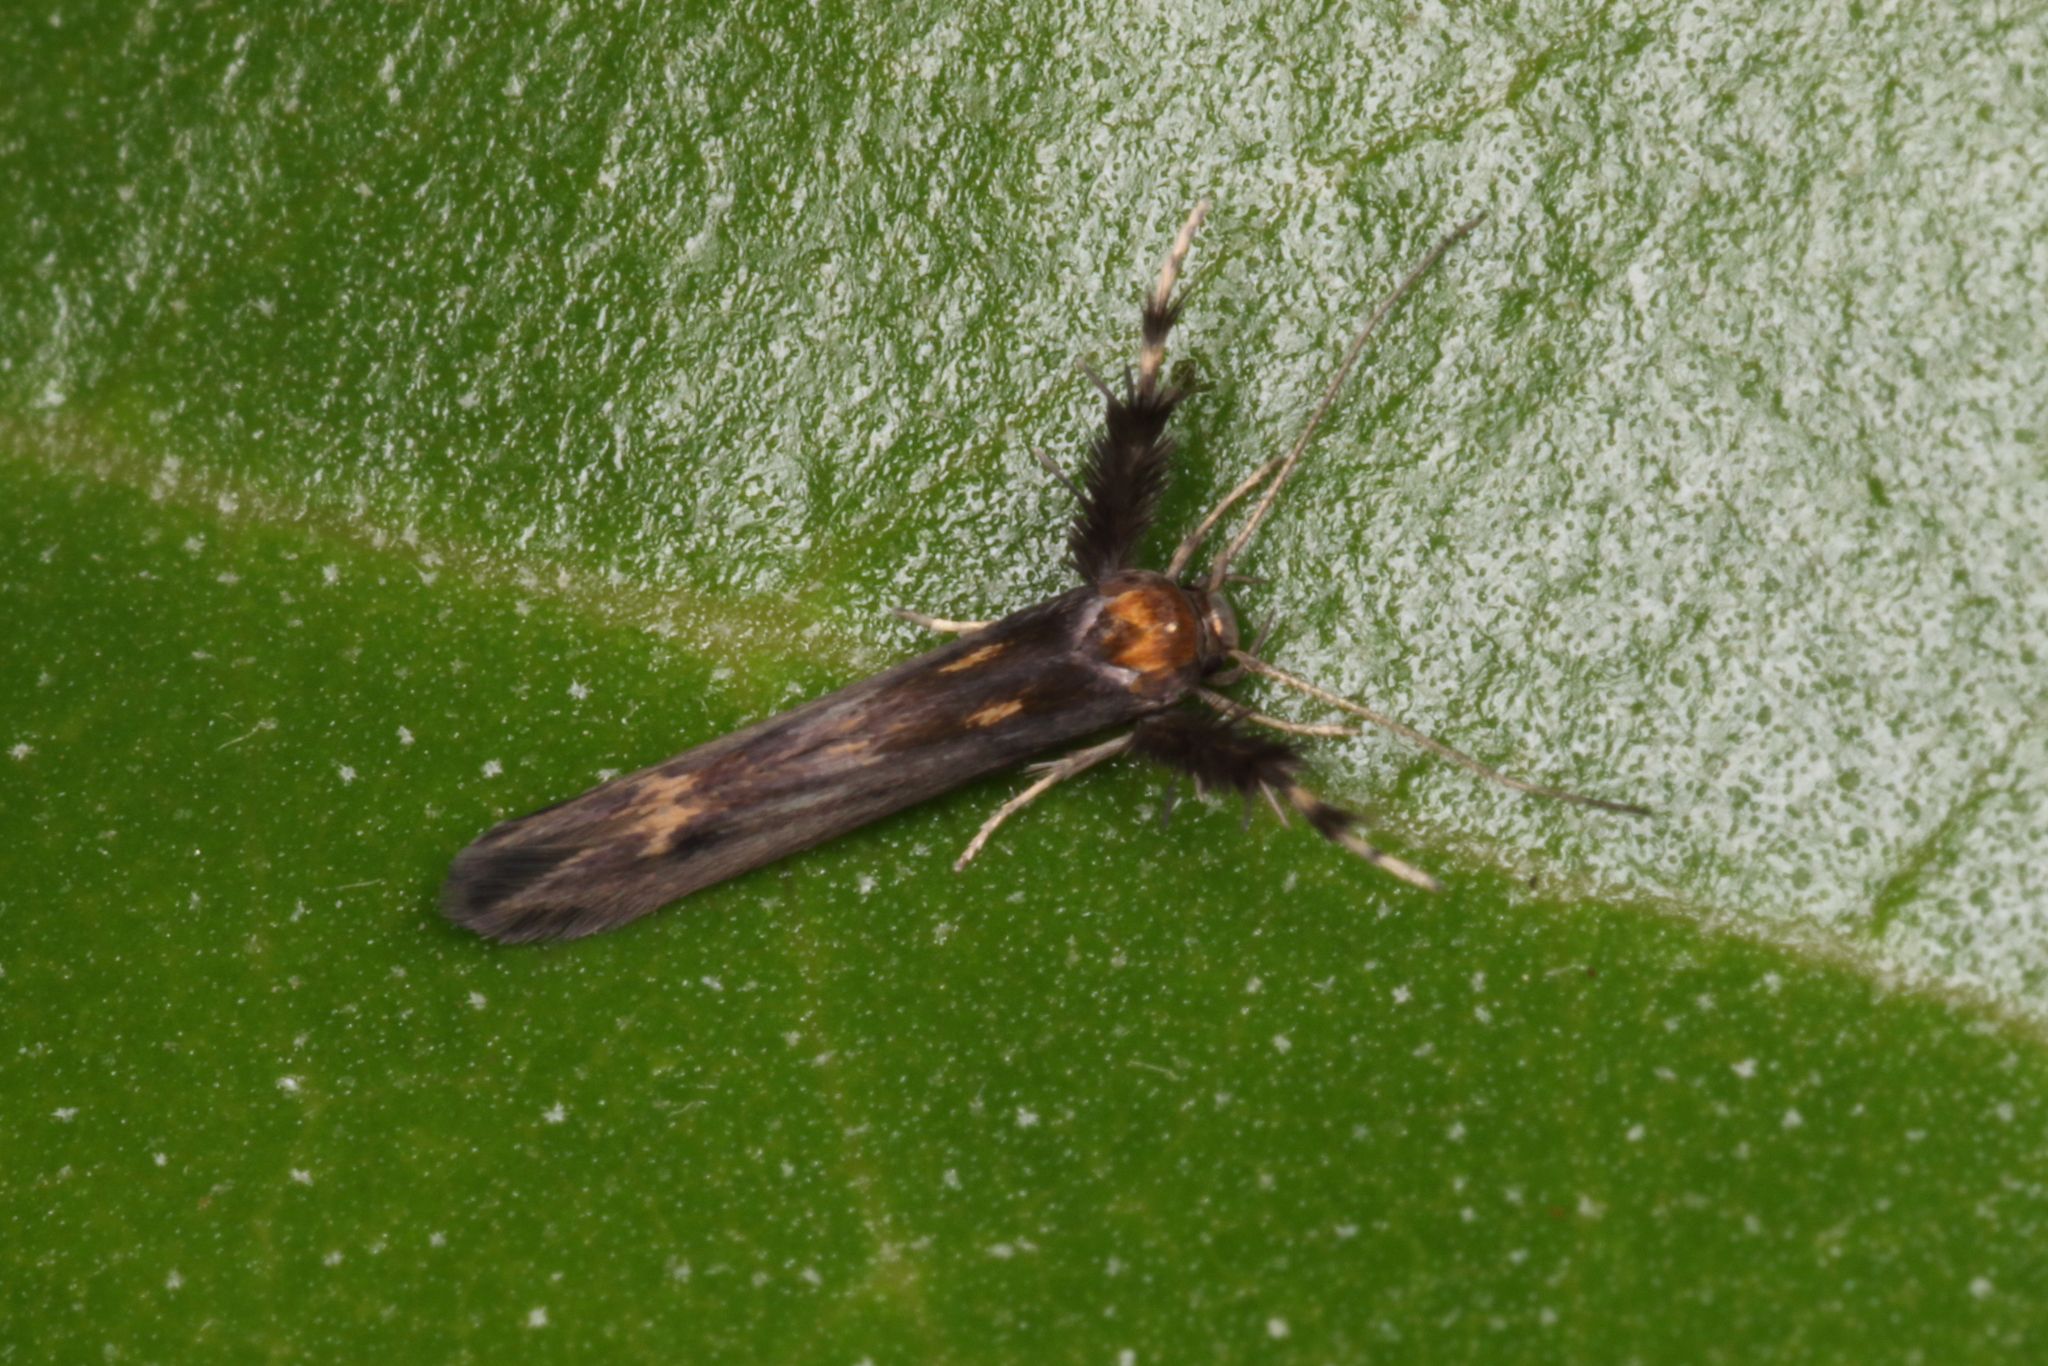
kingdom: Animalia
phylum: Arthropoda
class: Insecta
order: Lepidoptera
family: Stathmopodidae
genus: Stathmopoda
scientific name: Stathmopoda coracodes
